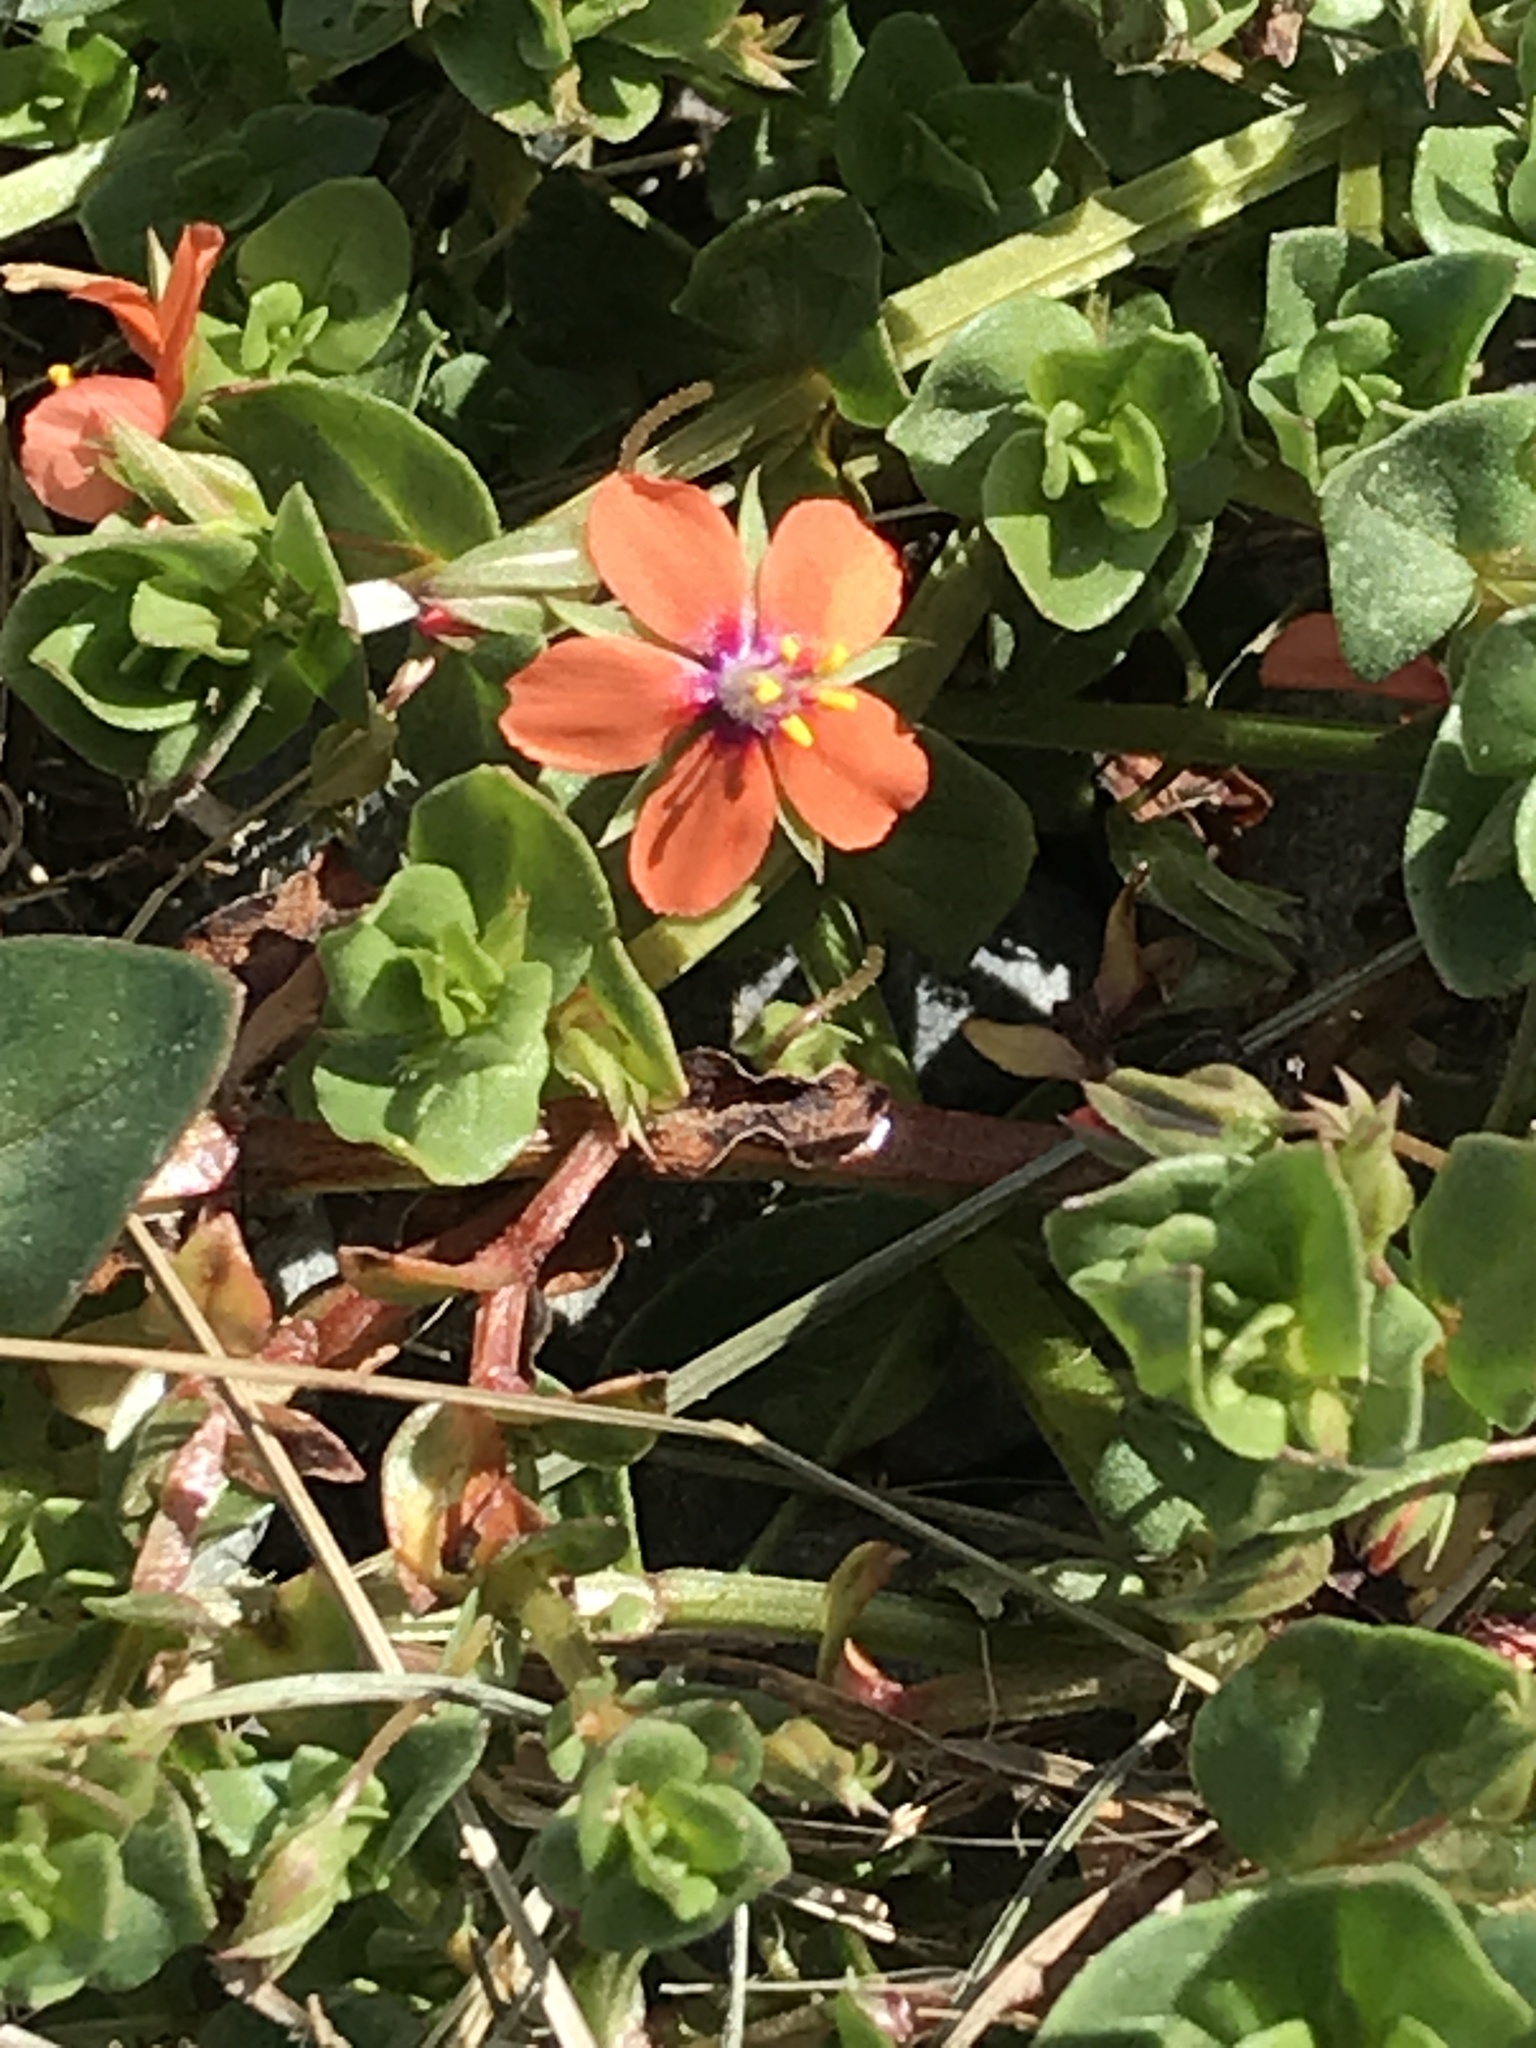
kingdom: Plantae
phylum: Tracheophyta
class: Magnoliopsida
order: Ericales
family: Primulaceae
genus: Lysimachia
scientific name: Lysimachia arvensis
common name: Scarlet pimpernel
